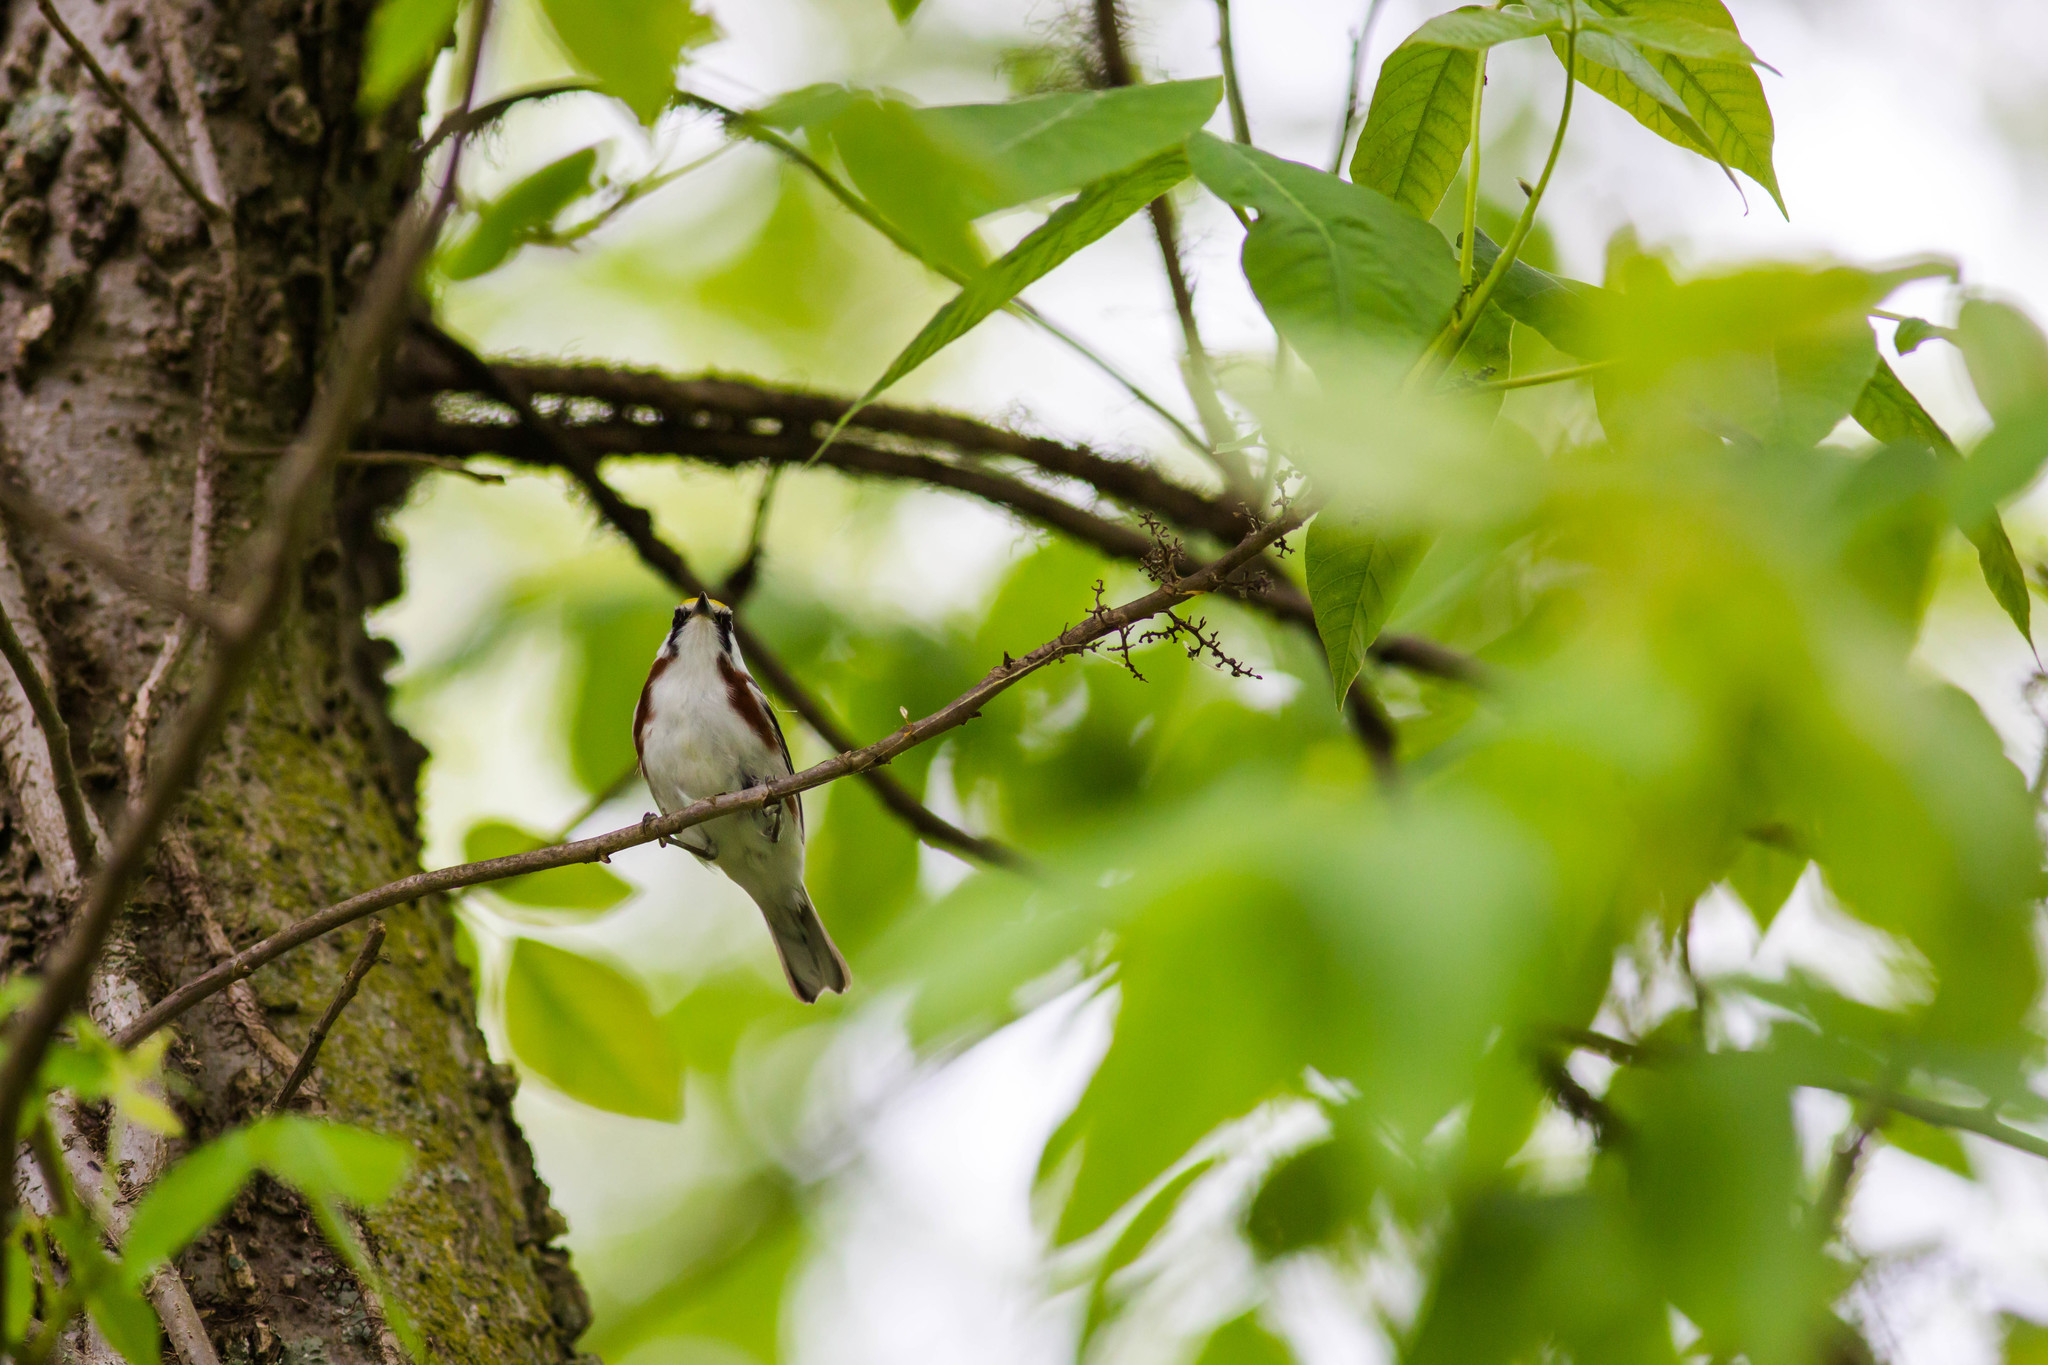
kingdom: Animalia
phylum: Chordata
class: Aves
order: Passeriformes
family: Parulidae
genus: Setophaga
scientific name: Setophaga pensylvanica
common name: Chestnut-sided warbler
